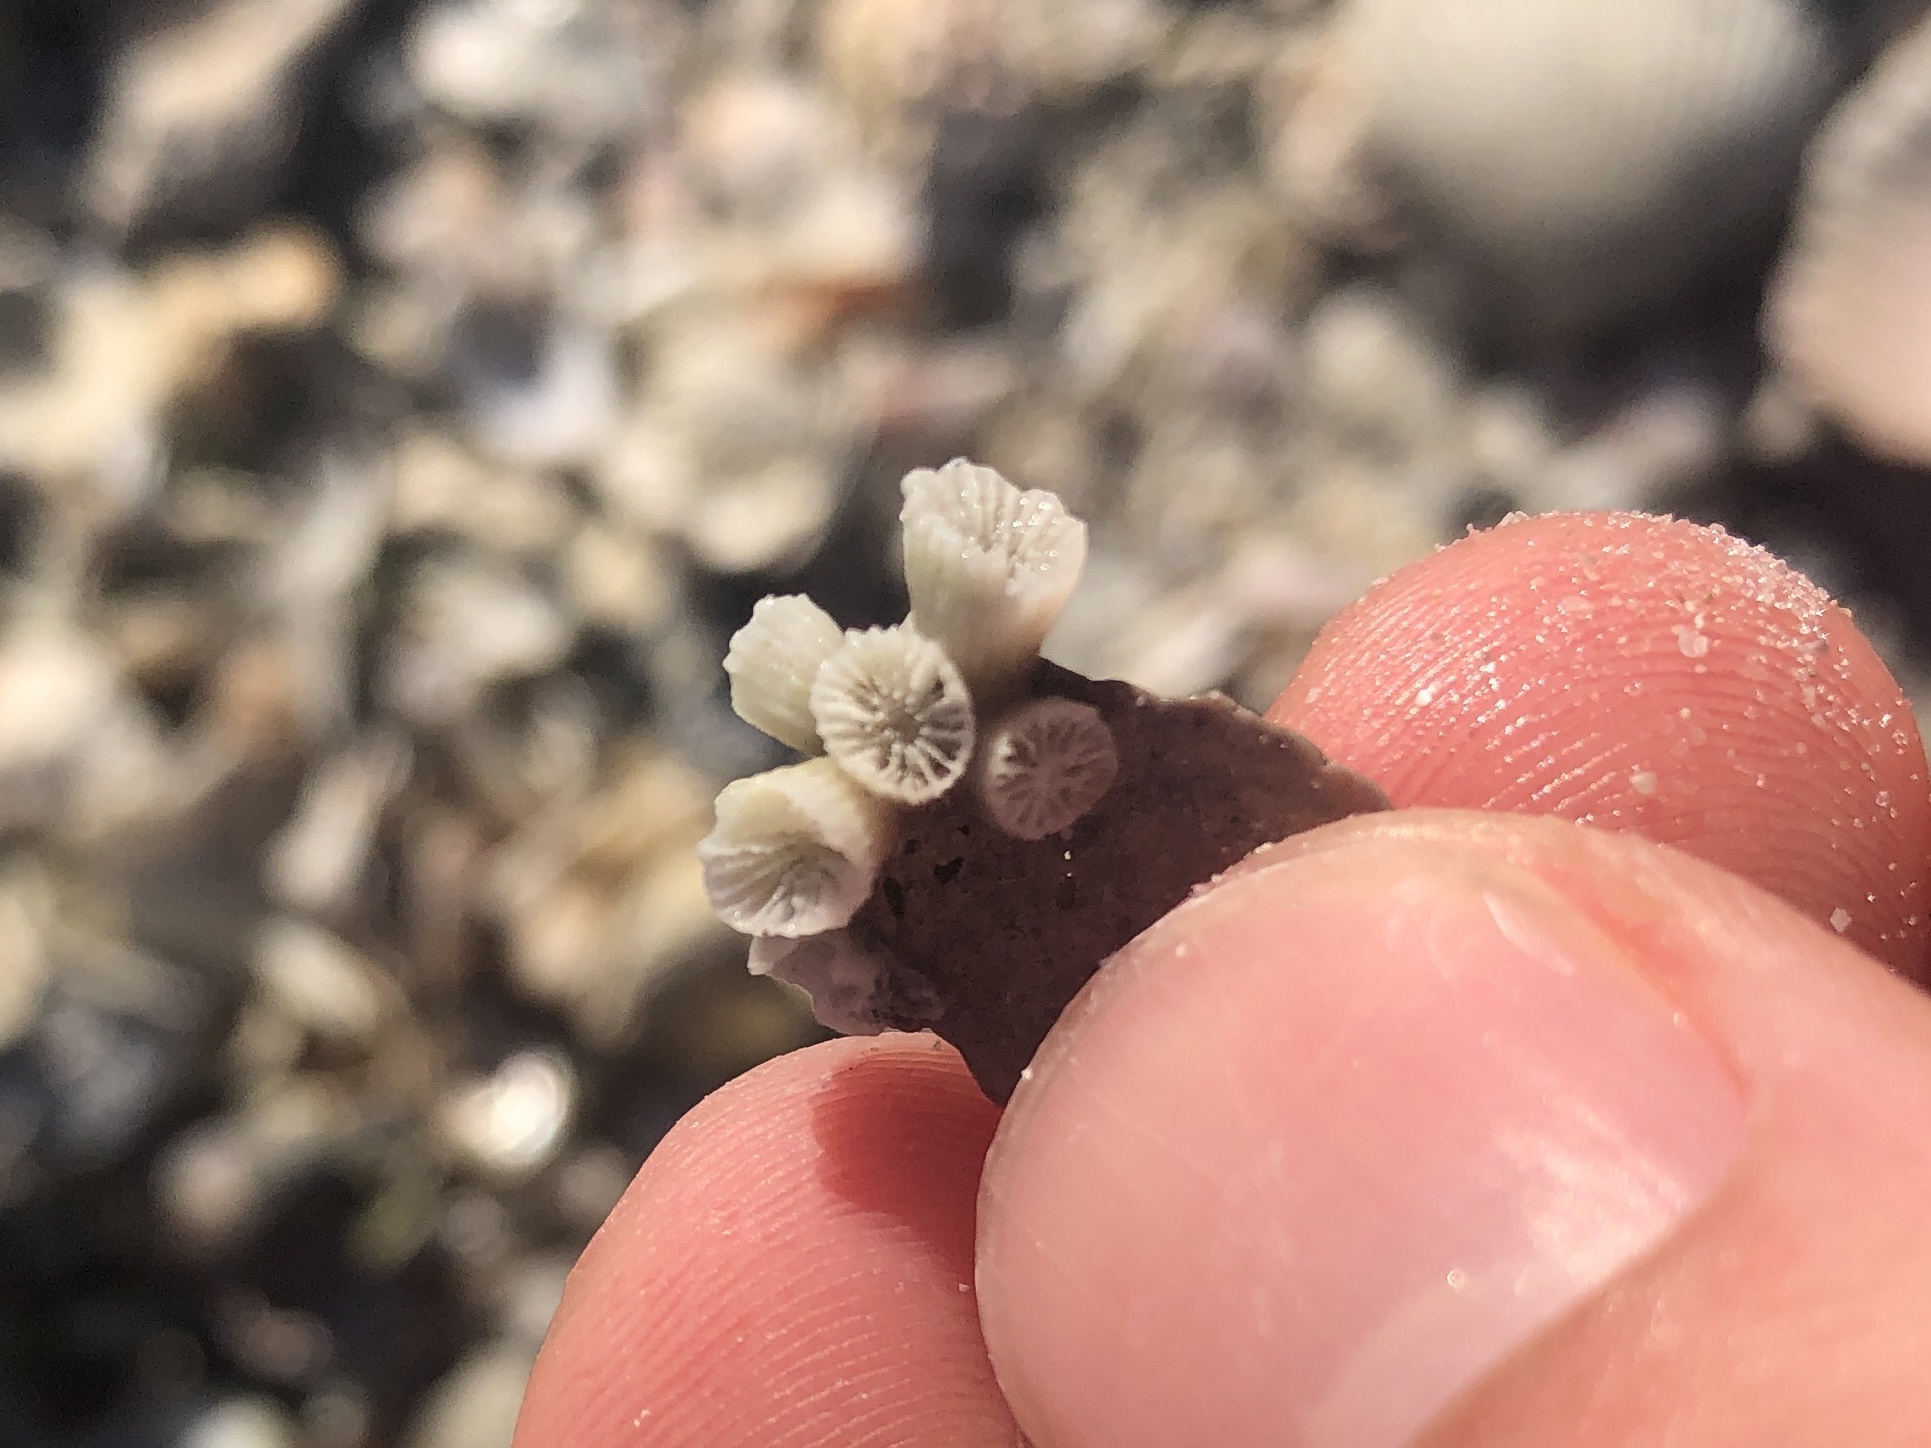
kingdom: Animalia
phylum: Cnidaria
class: Anthozoa
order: Scleractinia
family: Astrangiidae
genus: Astrangia
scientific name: Astrangia poculata
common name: Northern star coral
